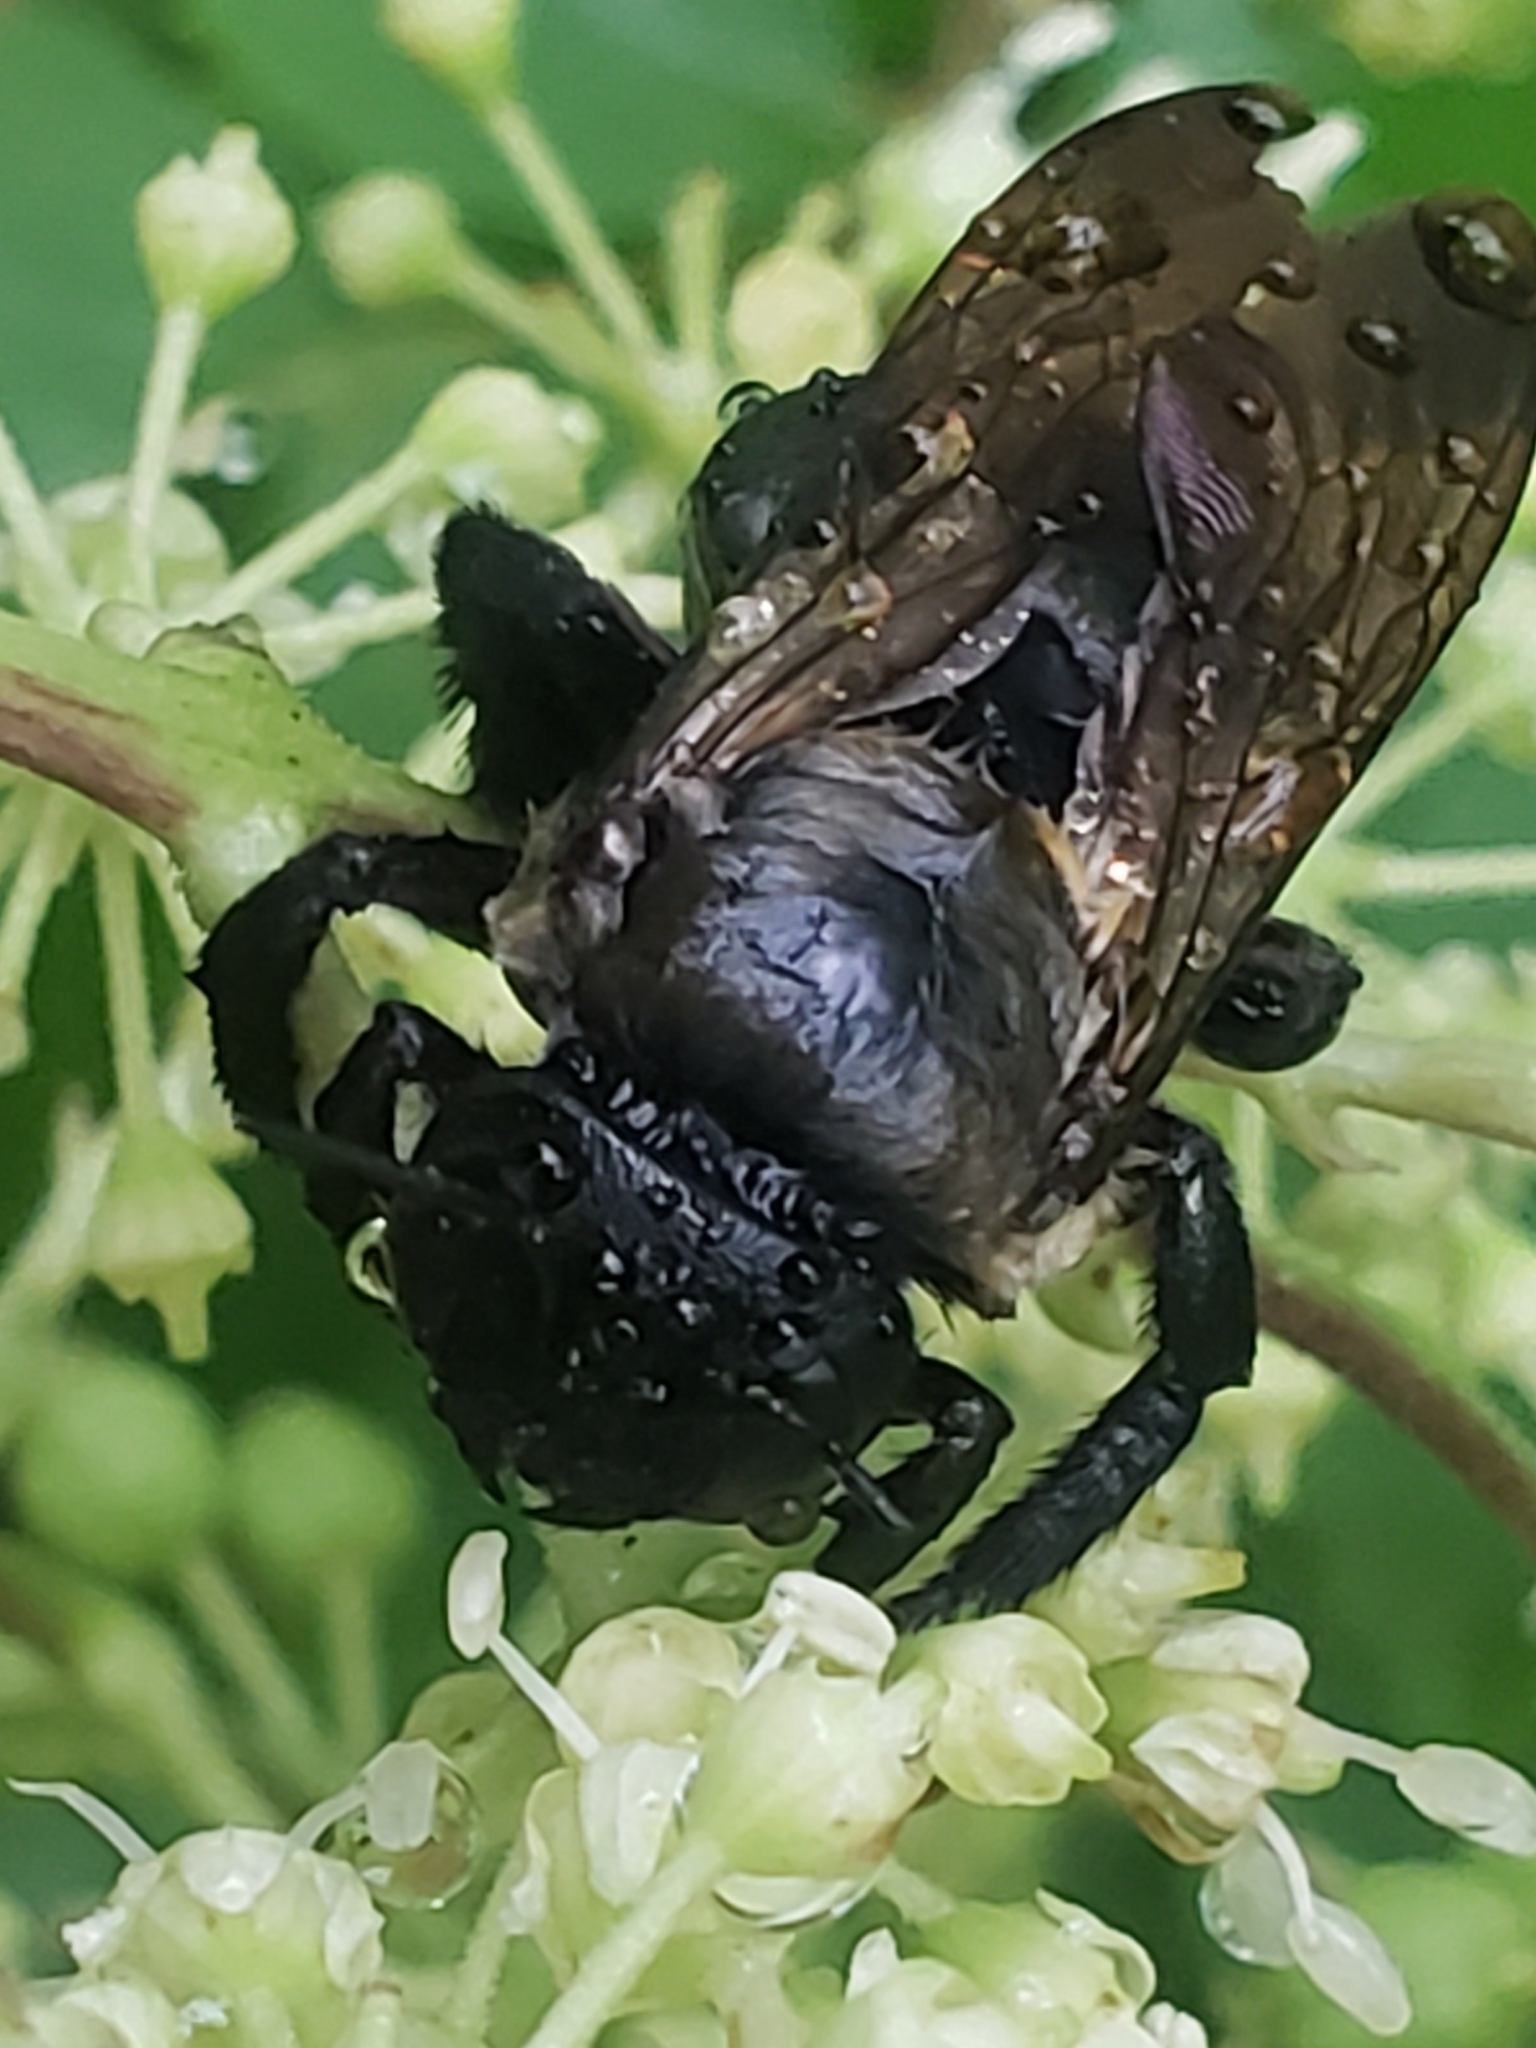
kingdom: Animalia
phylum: Arthropoda
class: Insecta
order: Hymenoptera
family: Apidae
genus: Xylocopa
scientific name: Xylocopa virginica
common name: Carpenter bee
